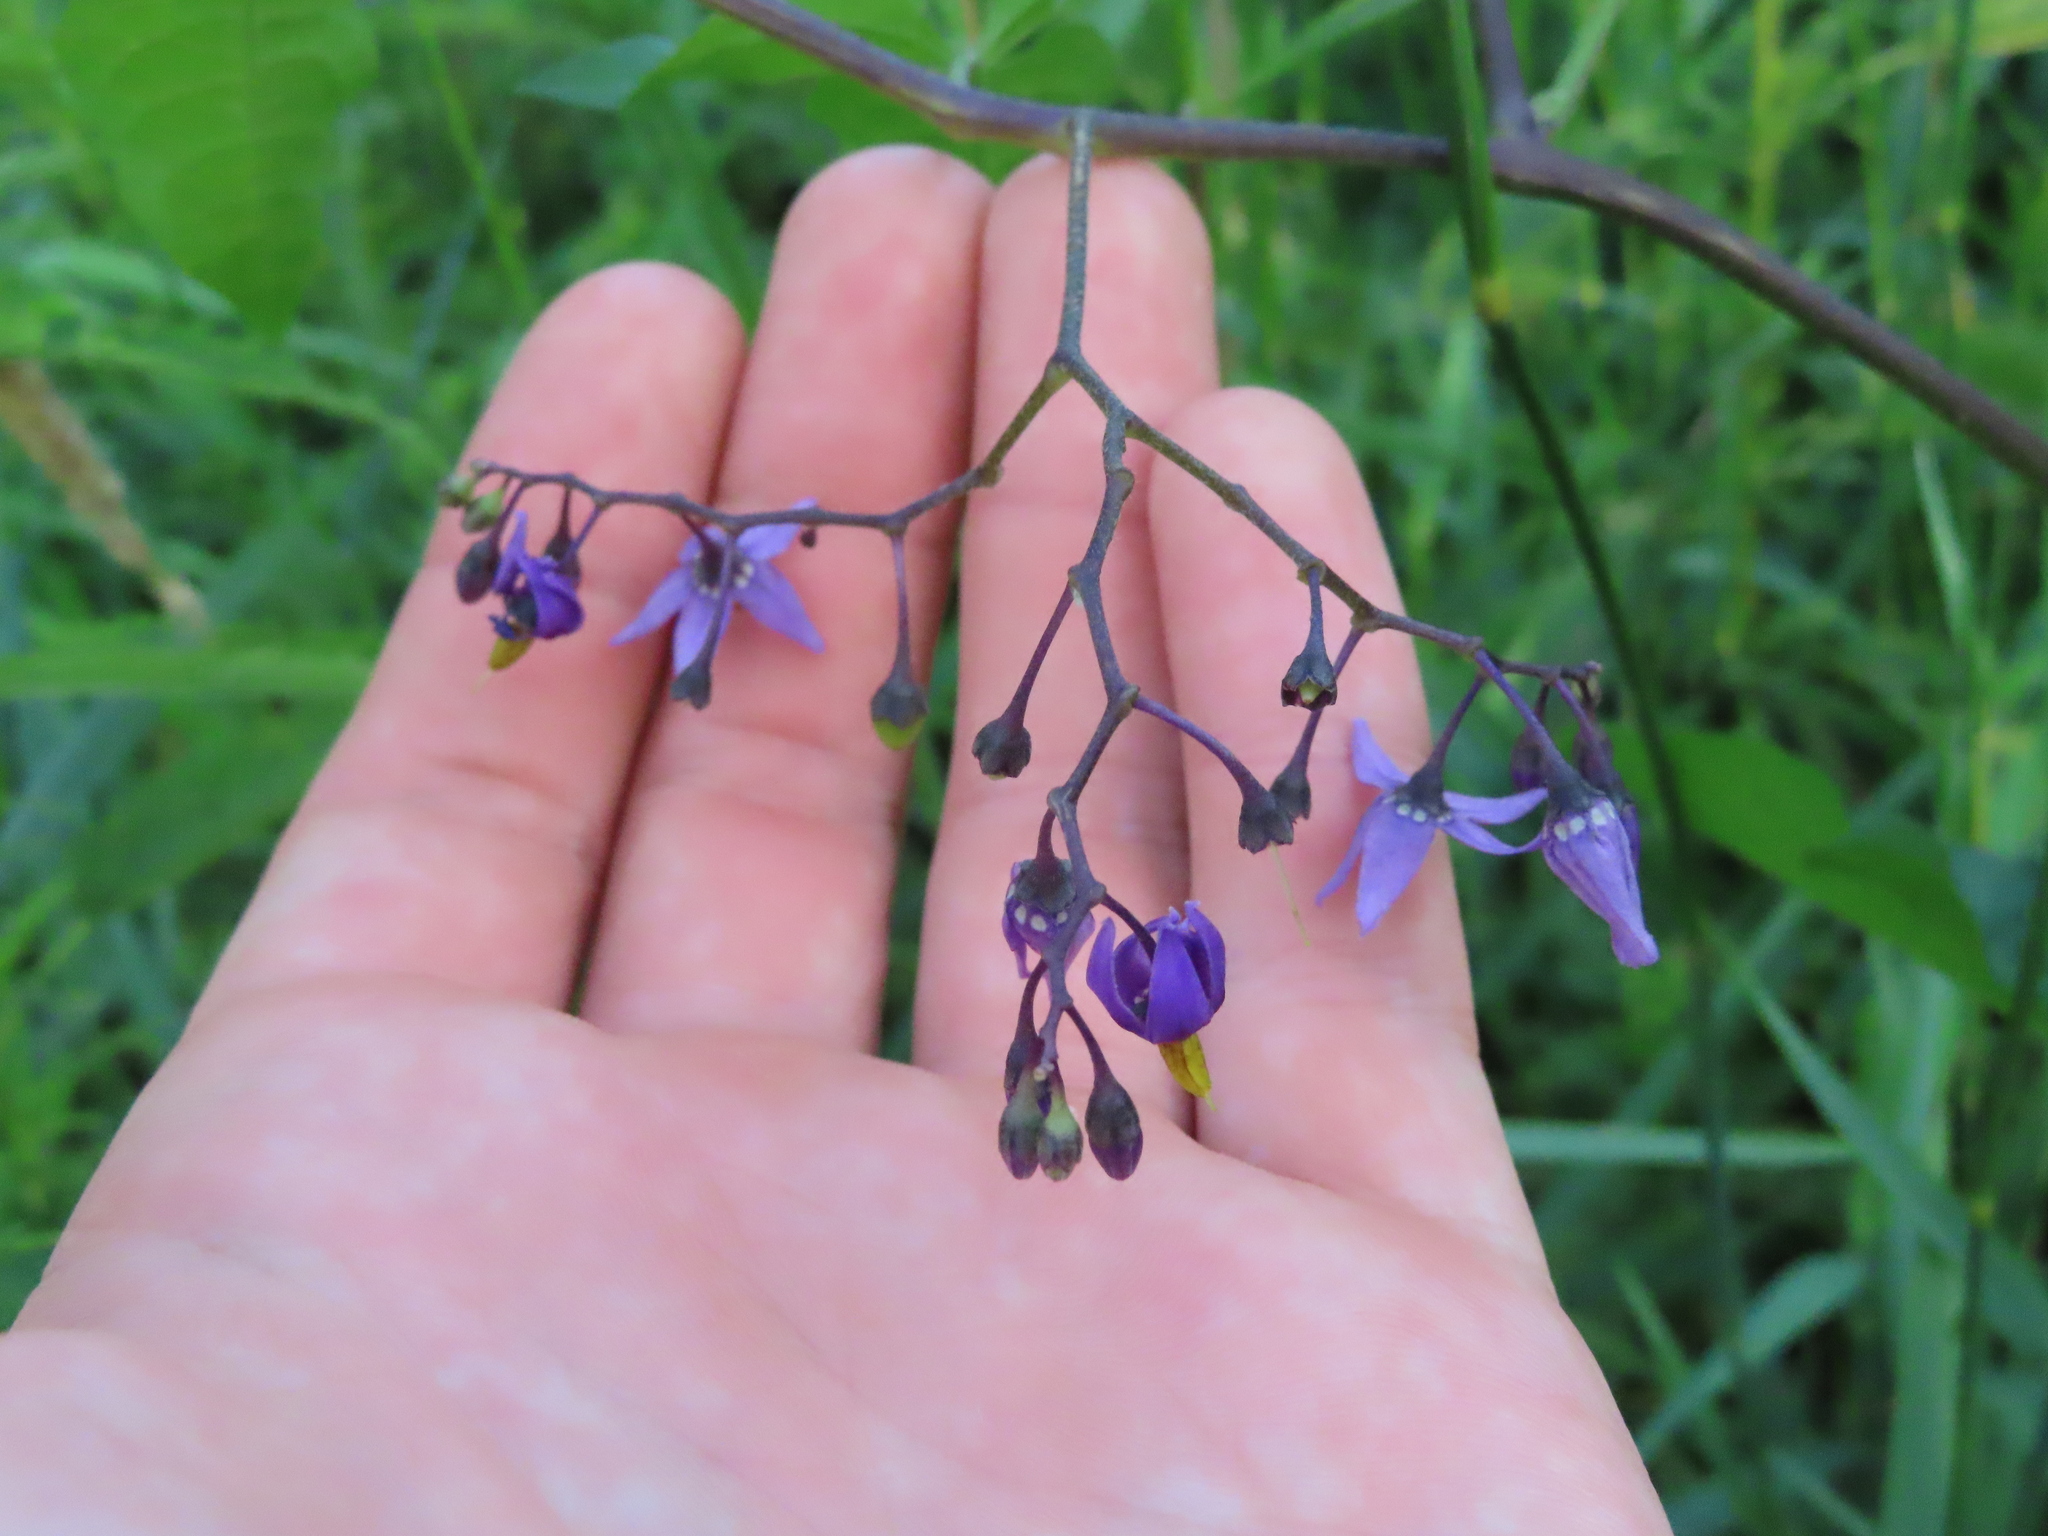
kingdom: Plantae
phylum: Tracheophyta
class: Magnoliopsida
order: Solanales
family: Solanaceae
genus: Solanum
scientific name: Solanum dulcamara
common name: Climbing nightshade
